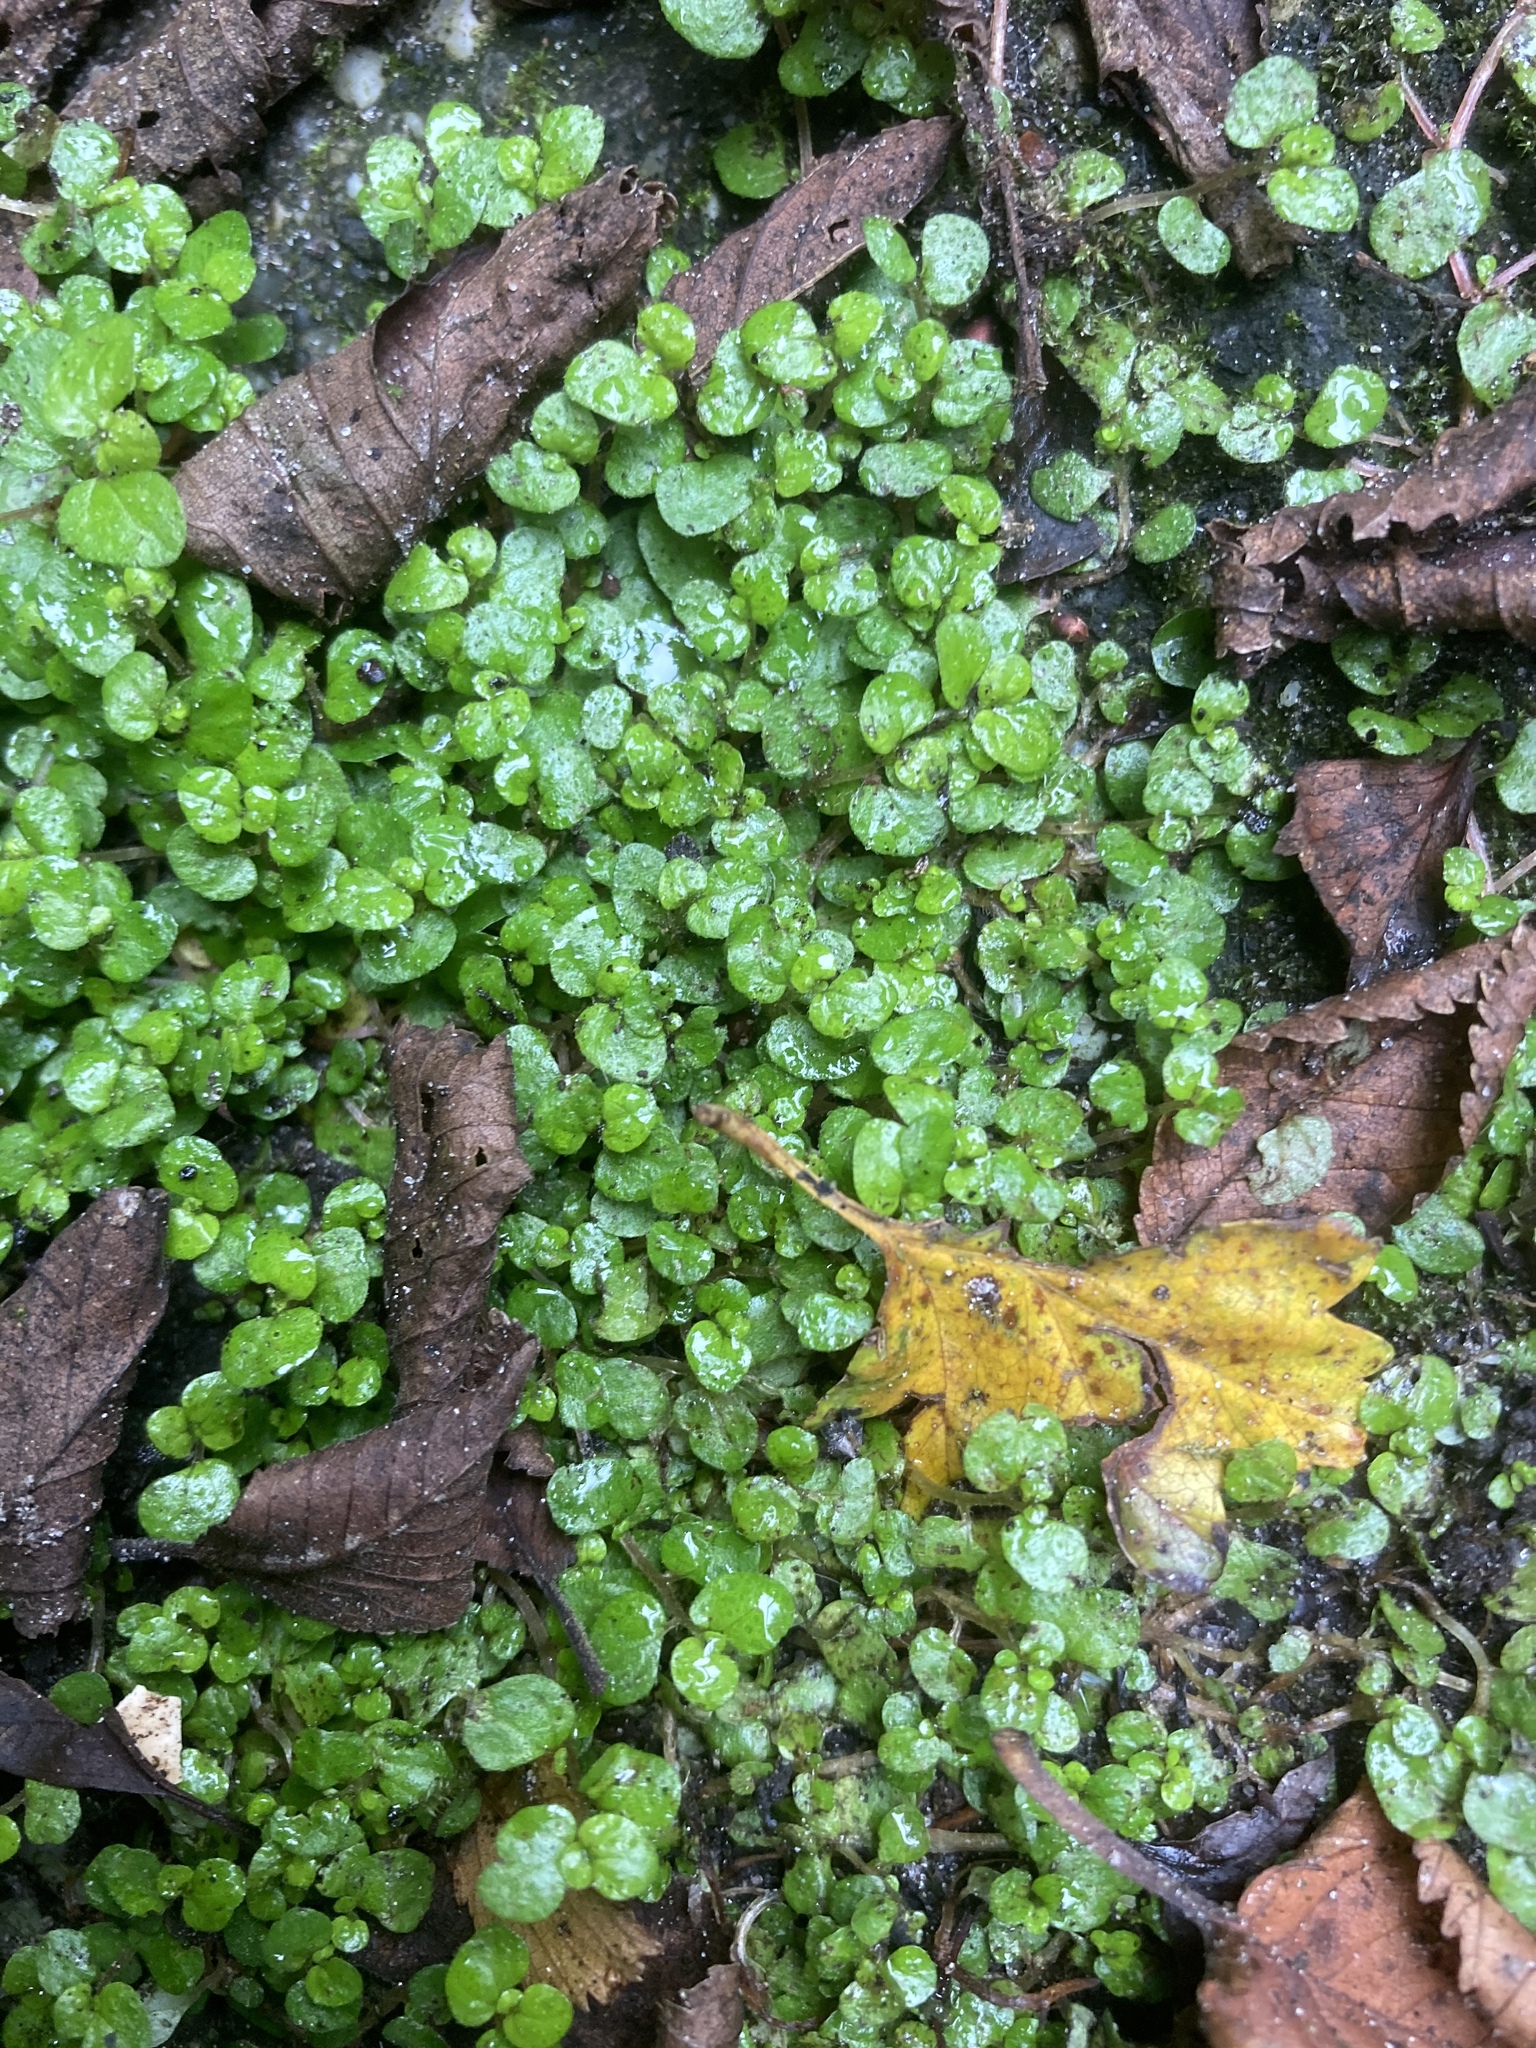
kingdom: Plantae
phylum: Tracheophyta
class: Magnoliopsida
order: Rosales
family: Urticaceae
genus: Soleirolia
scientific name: Soleirolia soleirolii
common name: Mind-your-own-business
